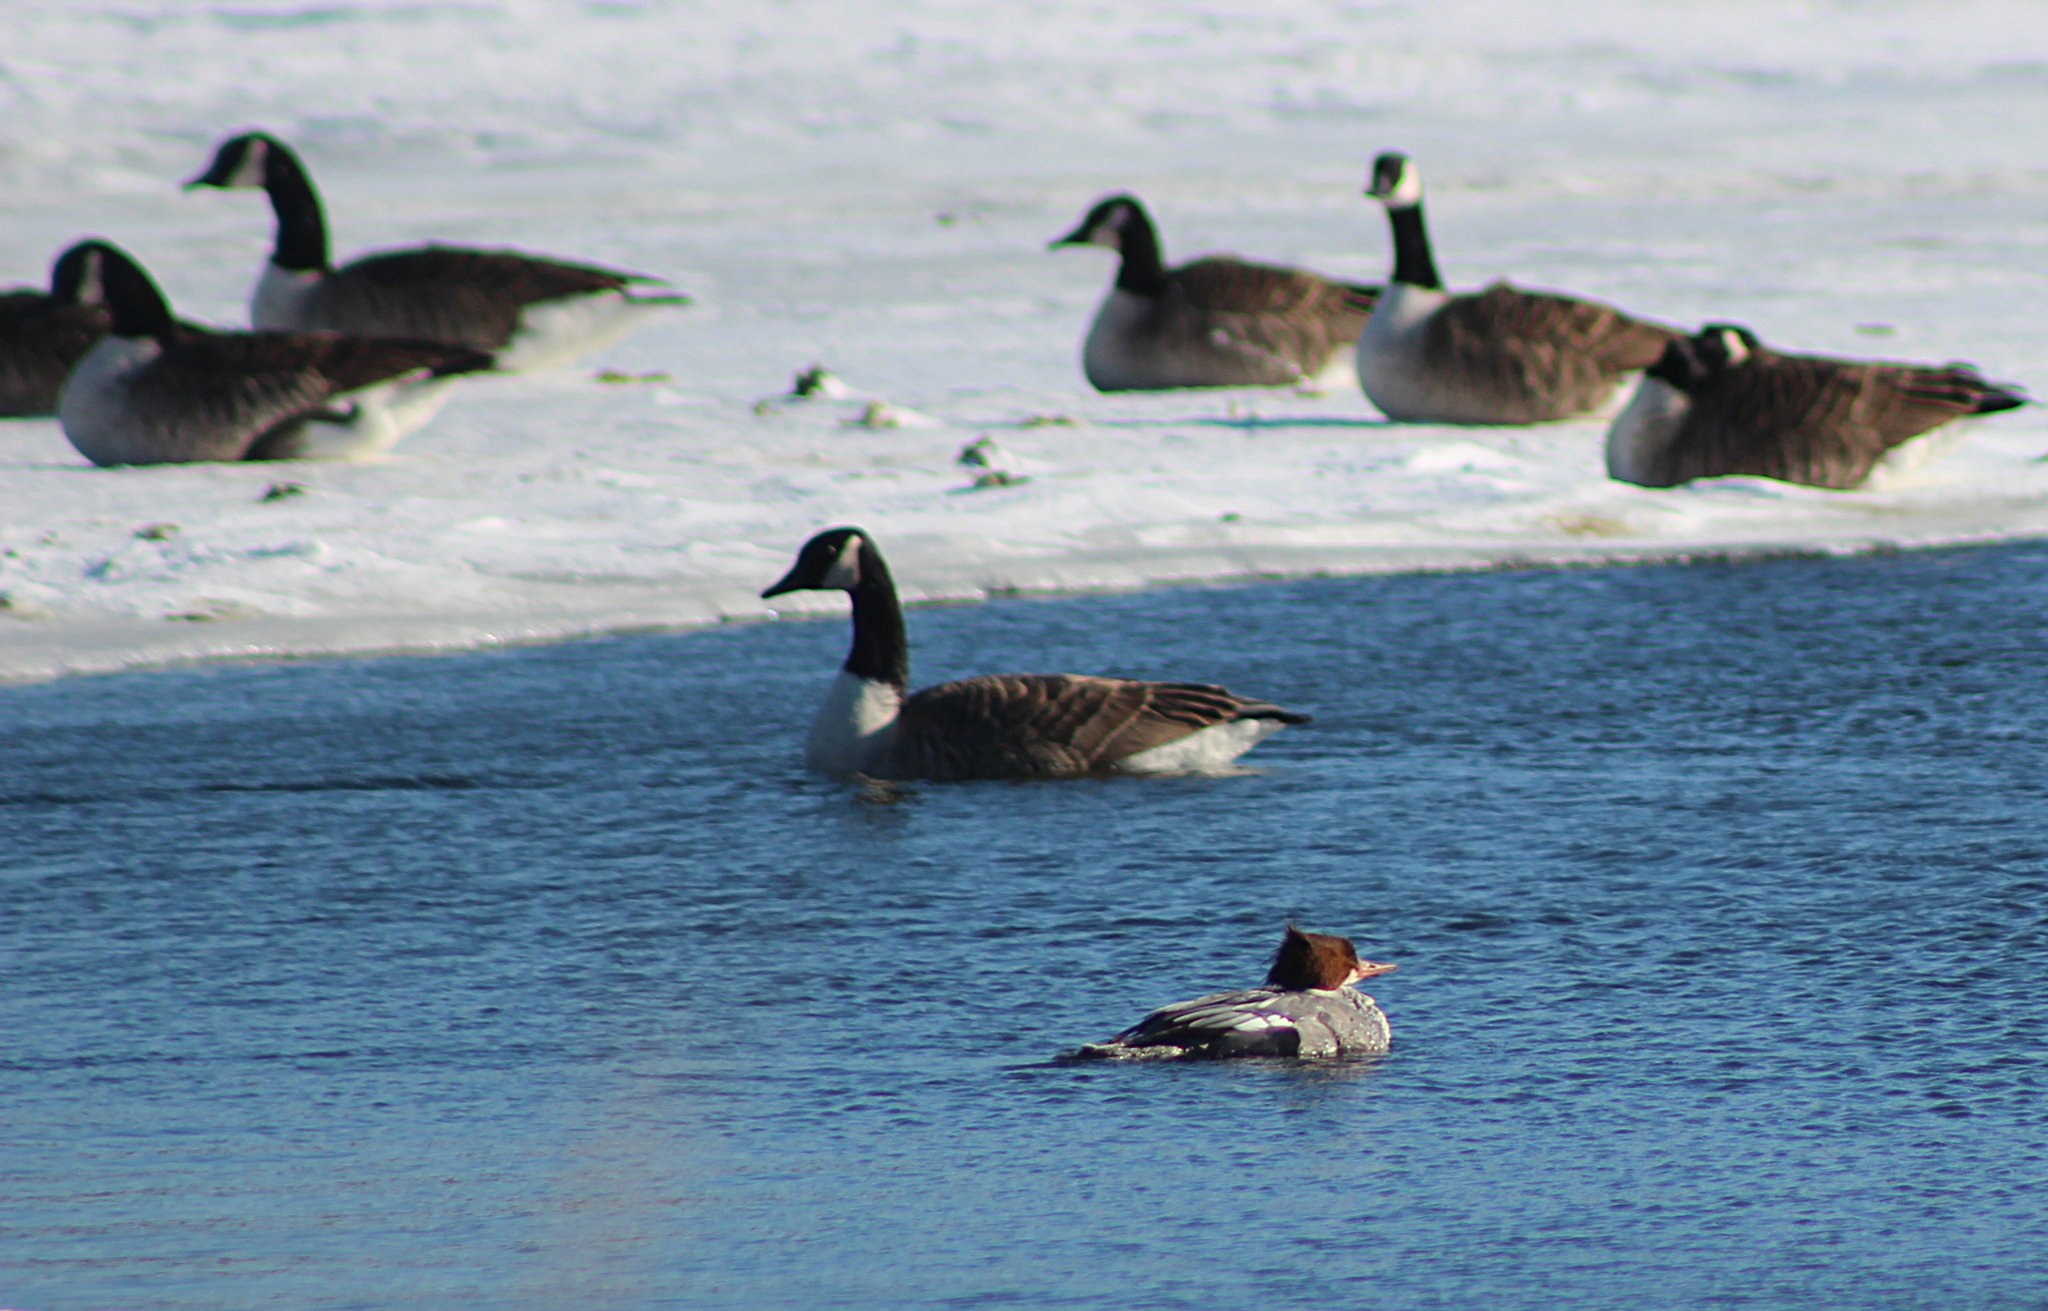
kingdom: Animalia
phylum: Chordata
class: Aves
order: Anseriformes
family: Anatidae
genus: Mergus
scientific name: Mergus merganser
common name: Common merganser
